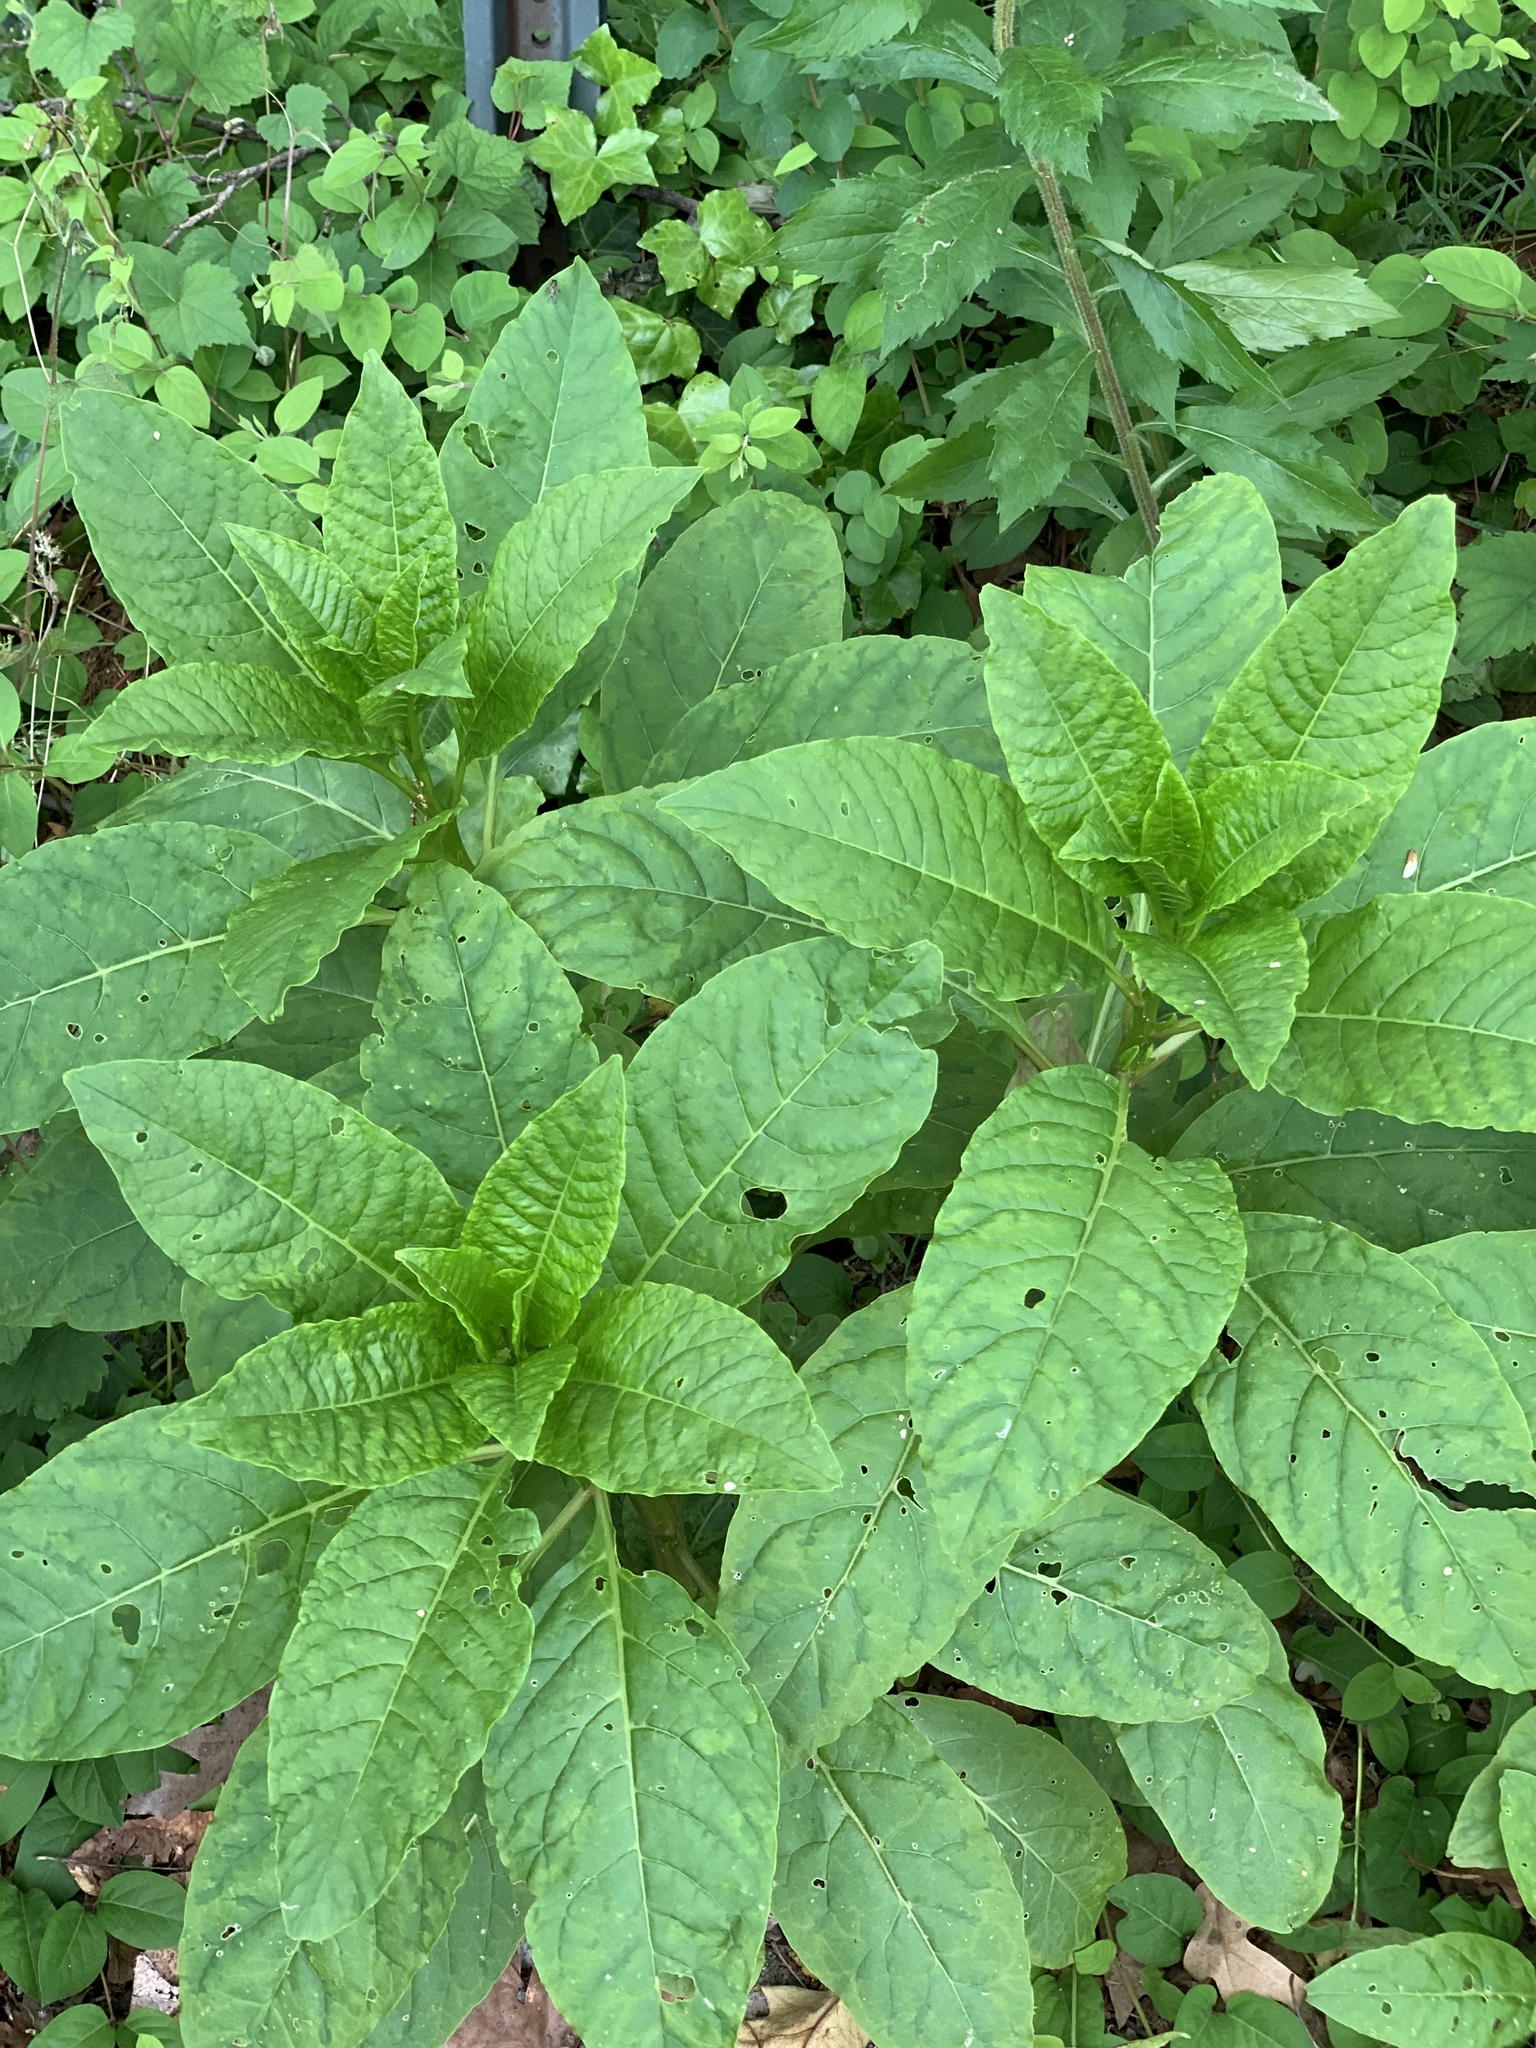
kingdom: Plantae
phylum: Tracheophyta
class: Magnoliopsida
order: Caryophyllales
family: Phytolaccaceae
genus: Phytolacca
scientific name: Phytolacca americana
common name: American pokeweed
